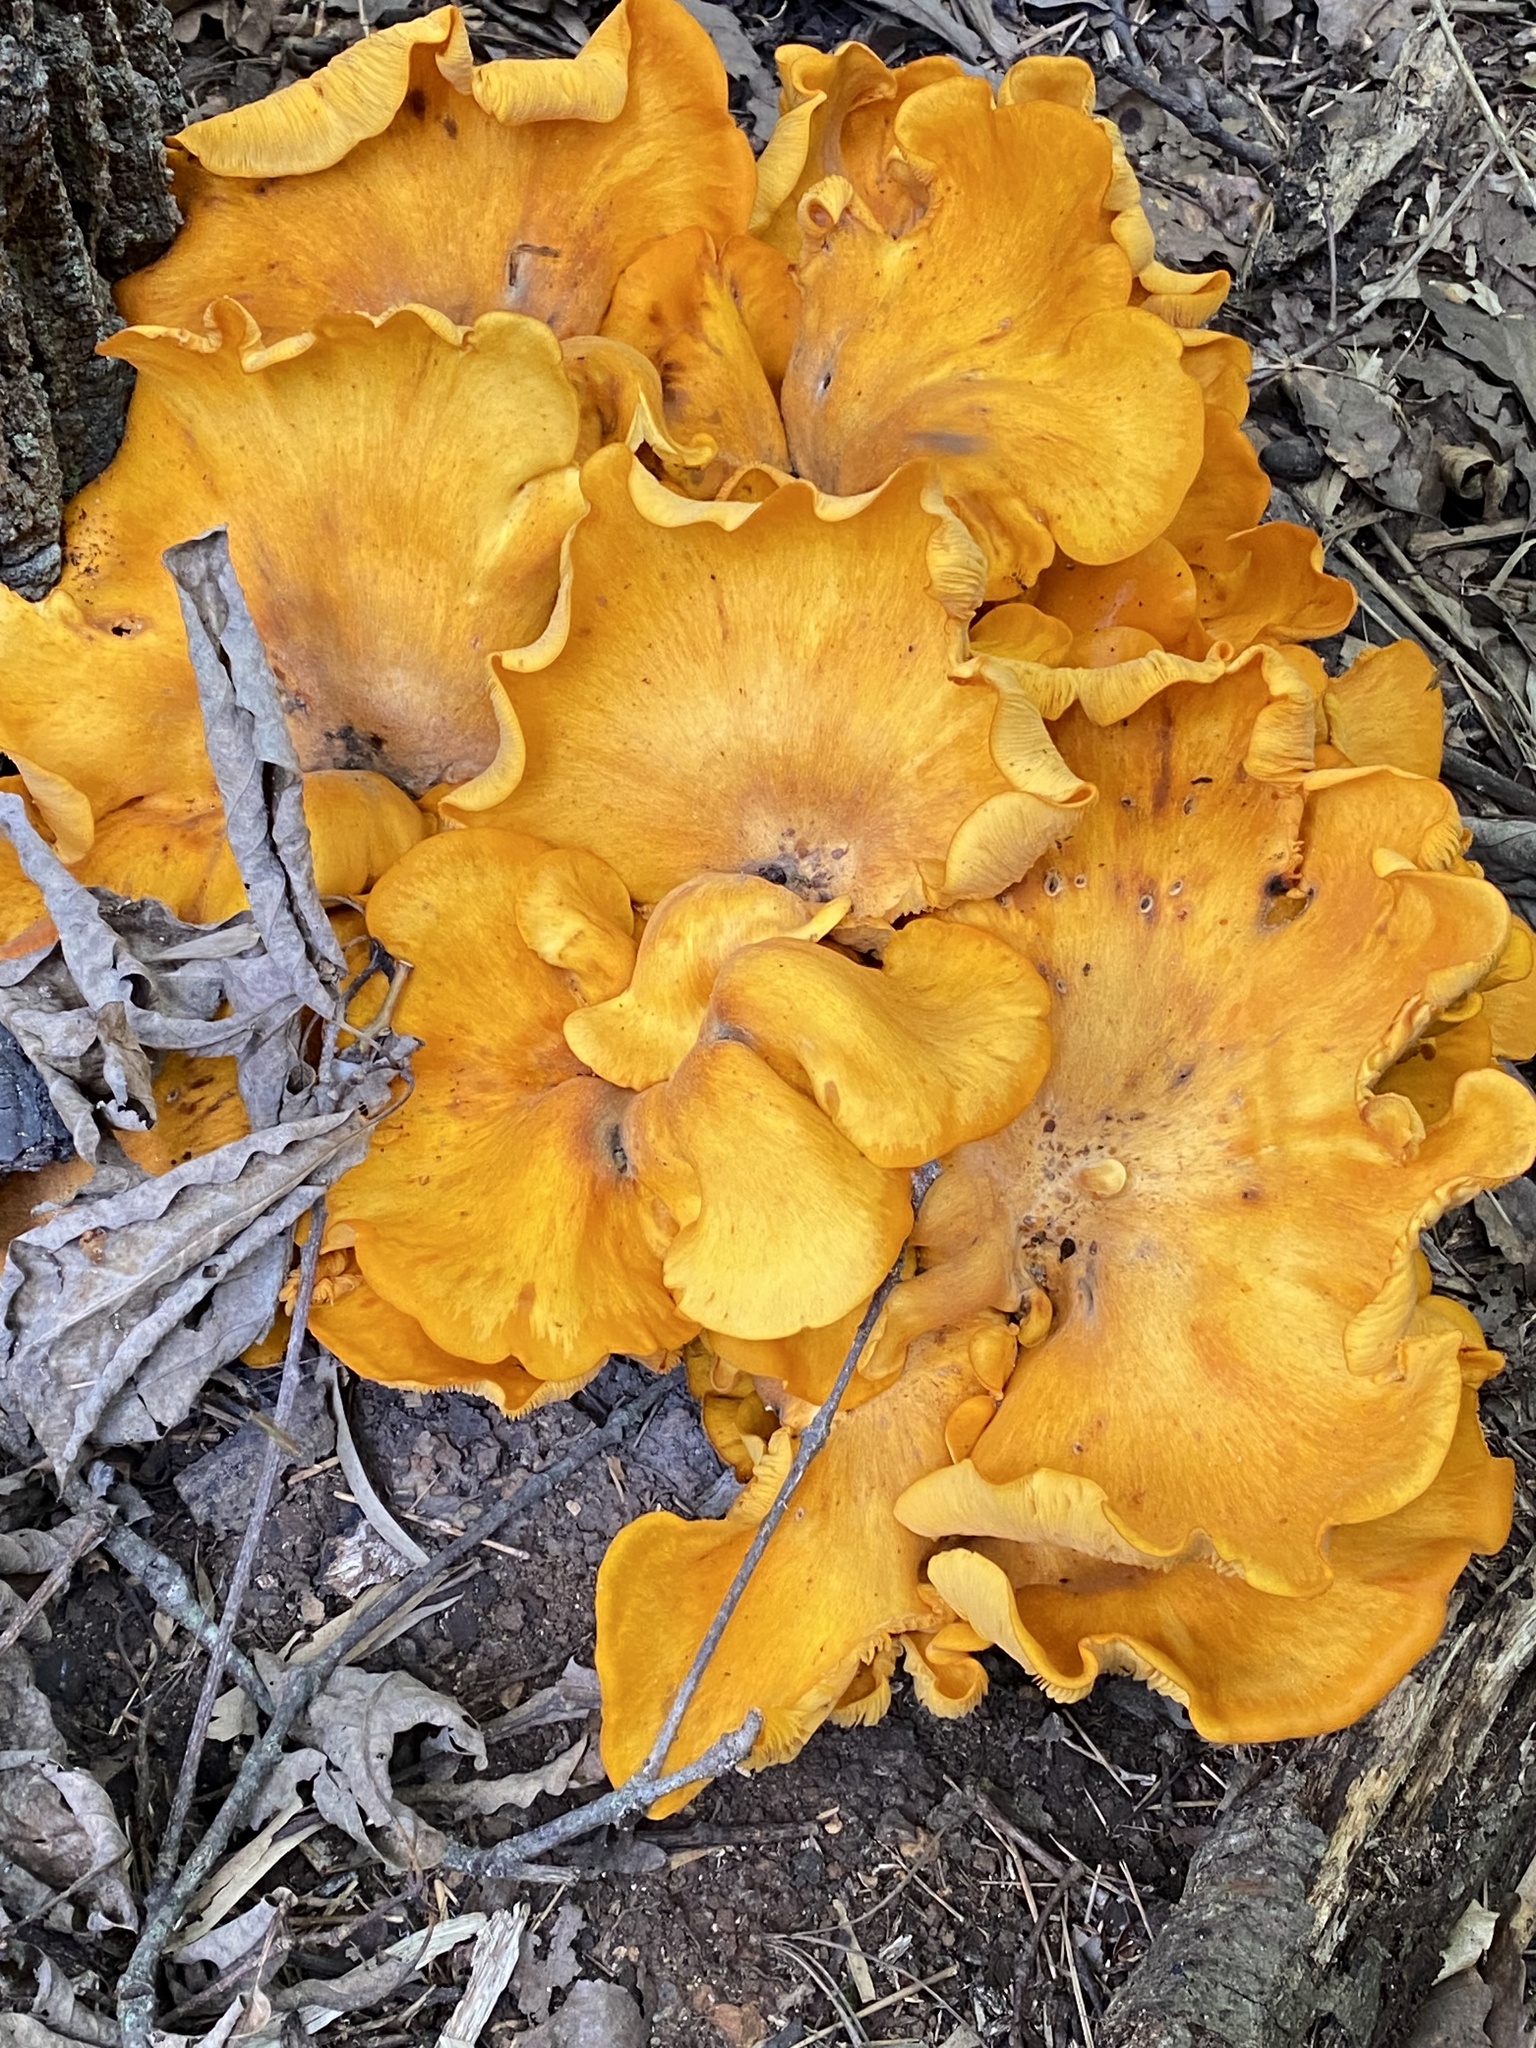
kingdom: Fungi
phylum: Basidiomycota
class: Agaricomycetes
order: Agaricales
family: Omphalotaceae
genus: Omphalotus
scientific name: Omphalotus illudens
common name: Jack o lantern
